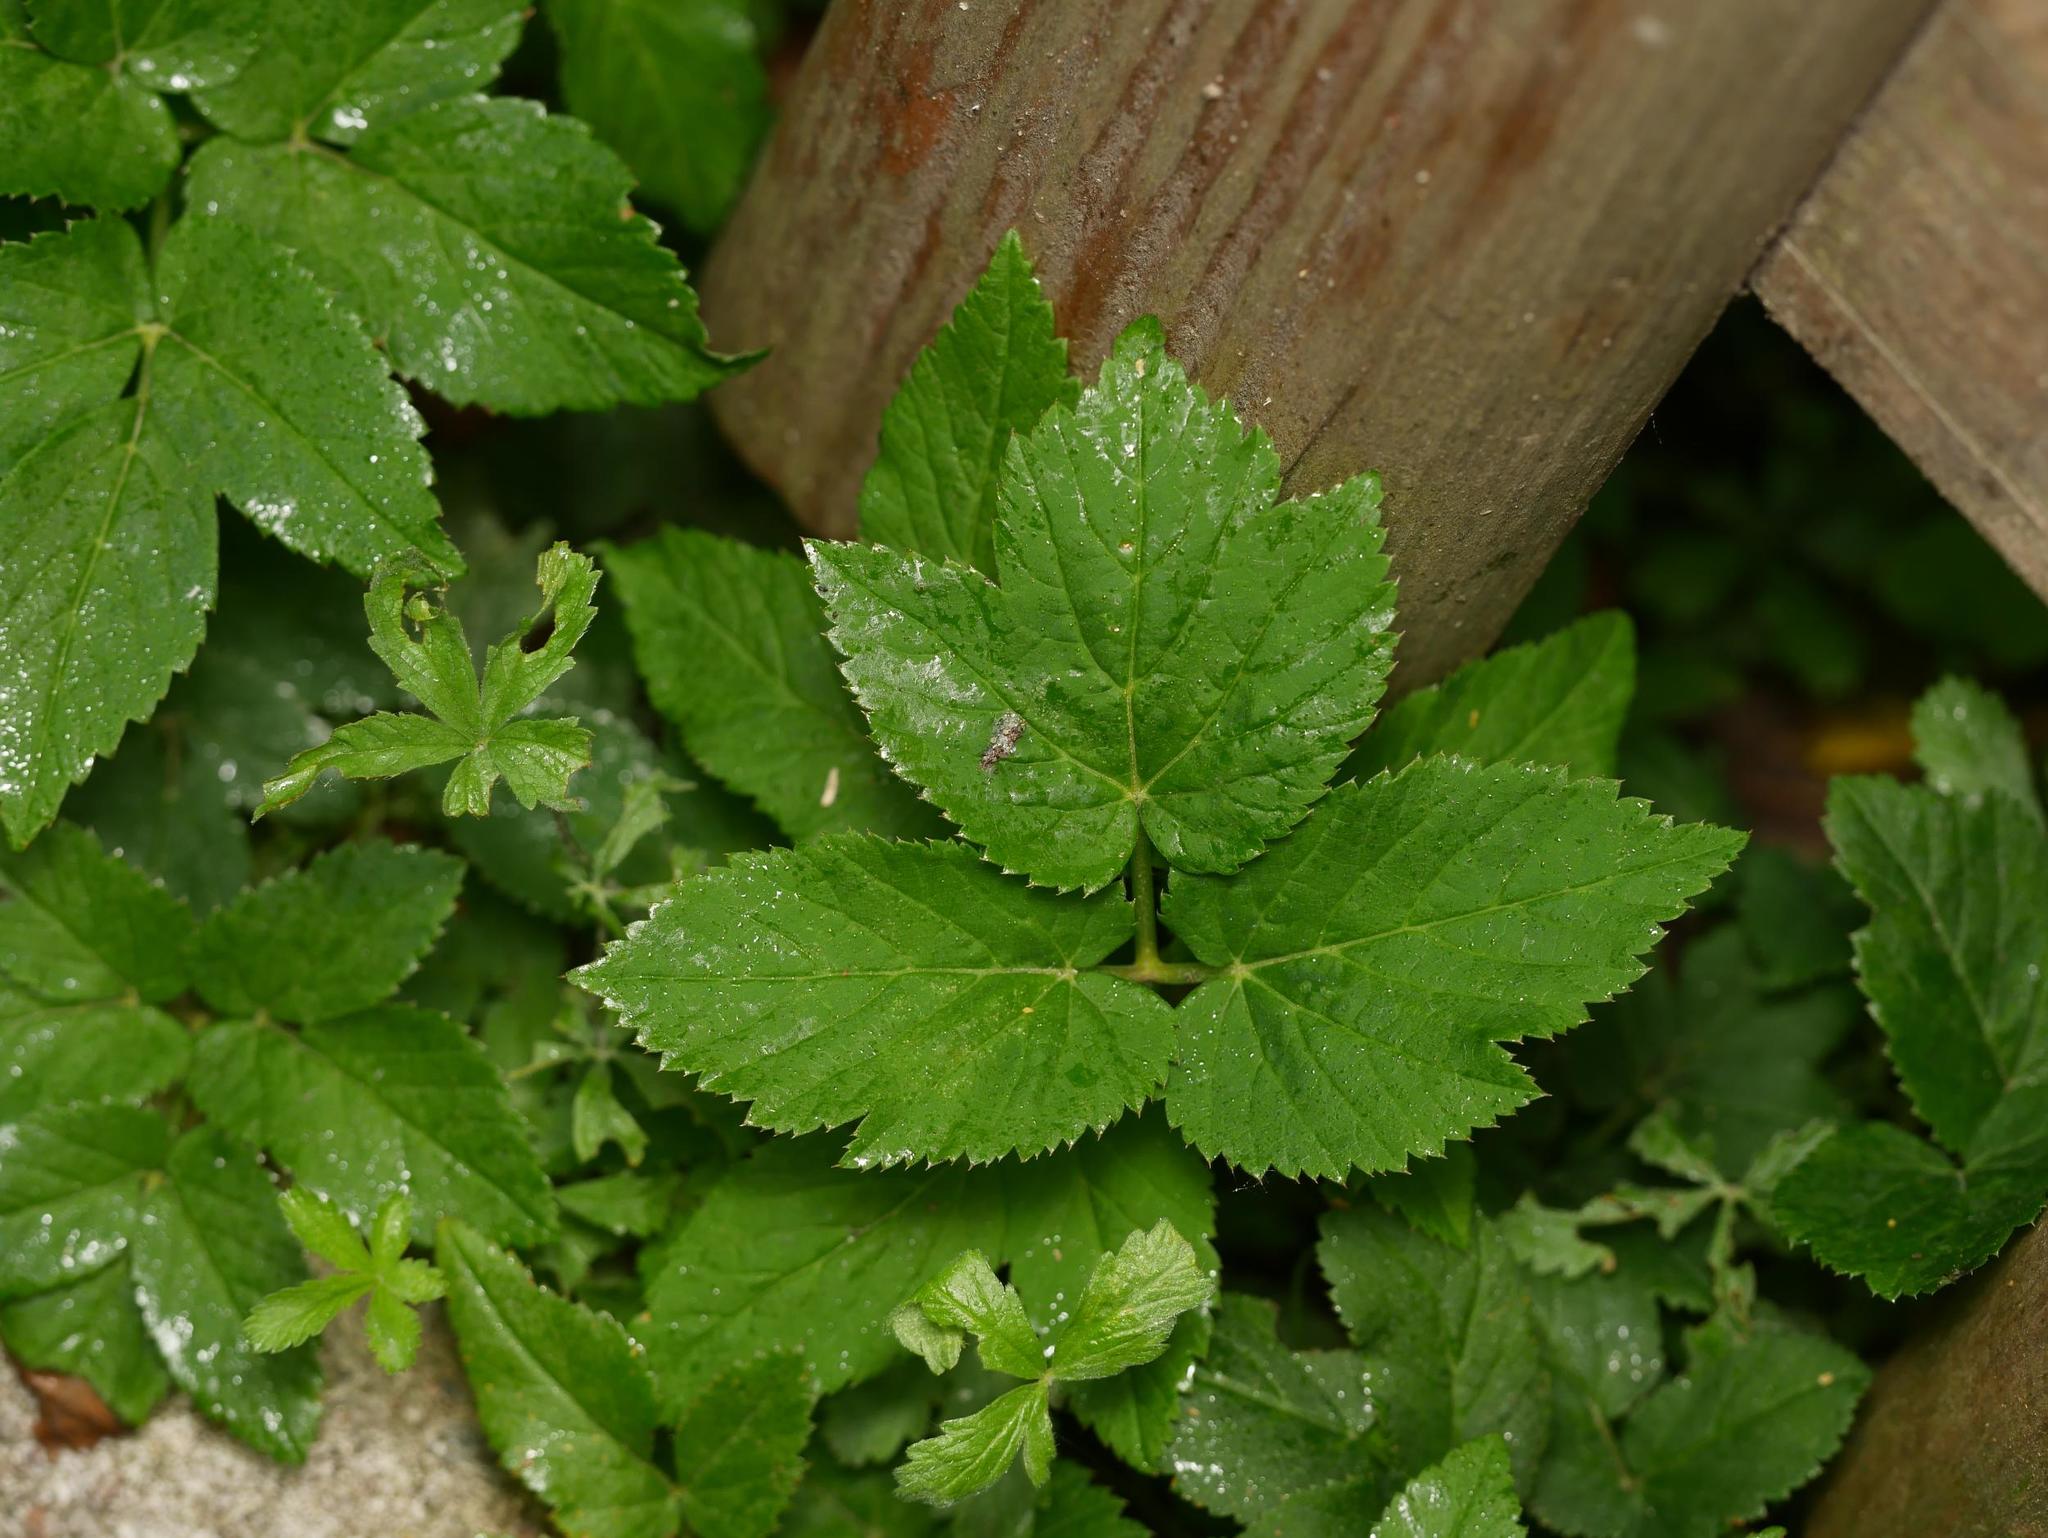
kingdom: Plantae
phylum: Tracheophyta
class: Magnoliopsida
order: Apiales
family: Apiaceae
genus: Aegopodium
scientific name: Aegopodium podagraria
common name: Ground-elder
